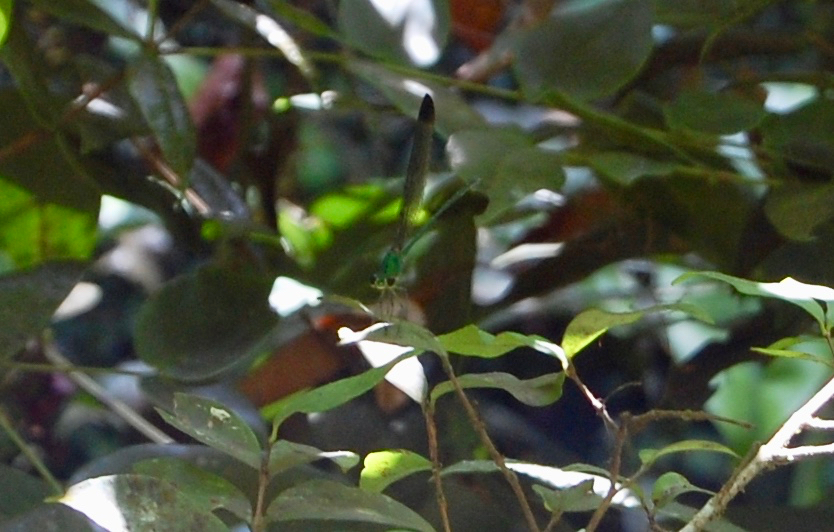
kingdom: Animalia
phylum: Arthropoda
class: Insecta
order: Odonata
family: Calopterygidae
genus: Vestalis
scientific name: Vestalis apicalis
